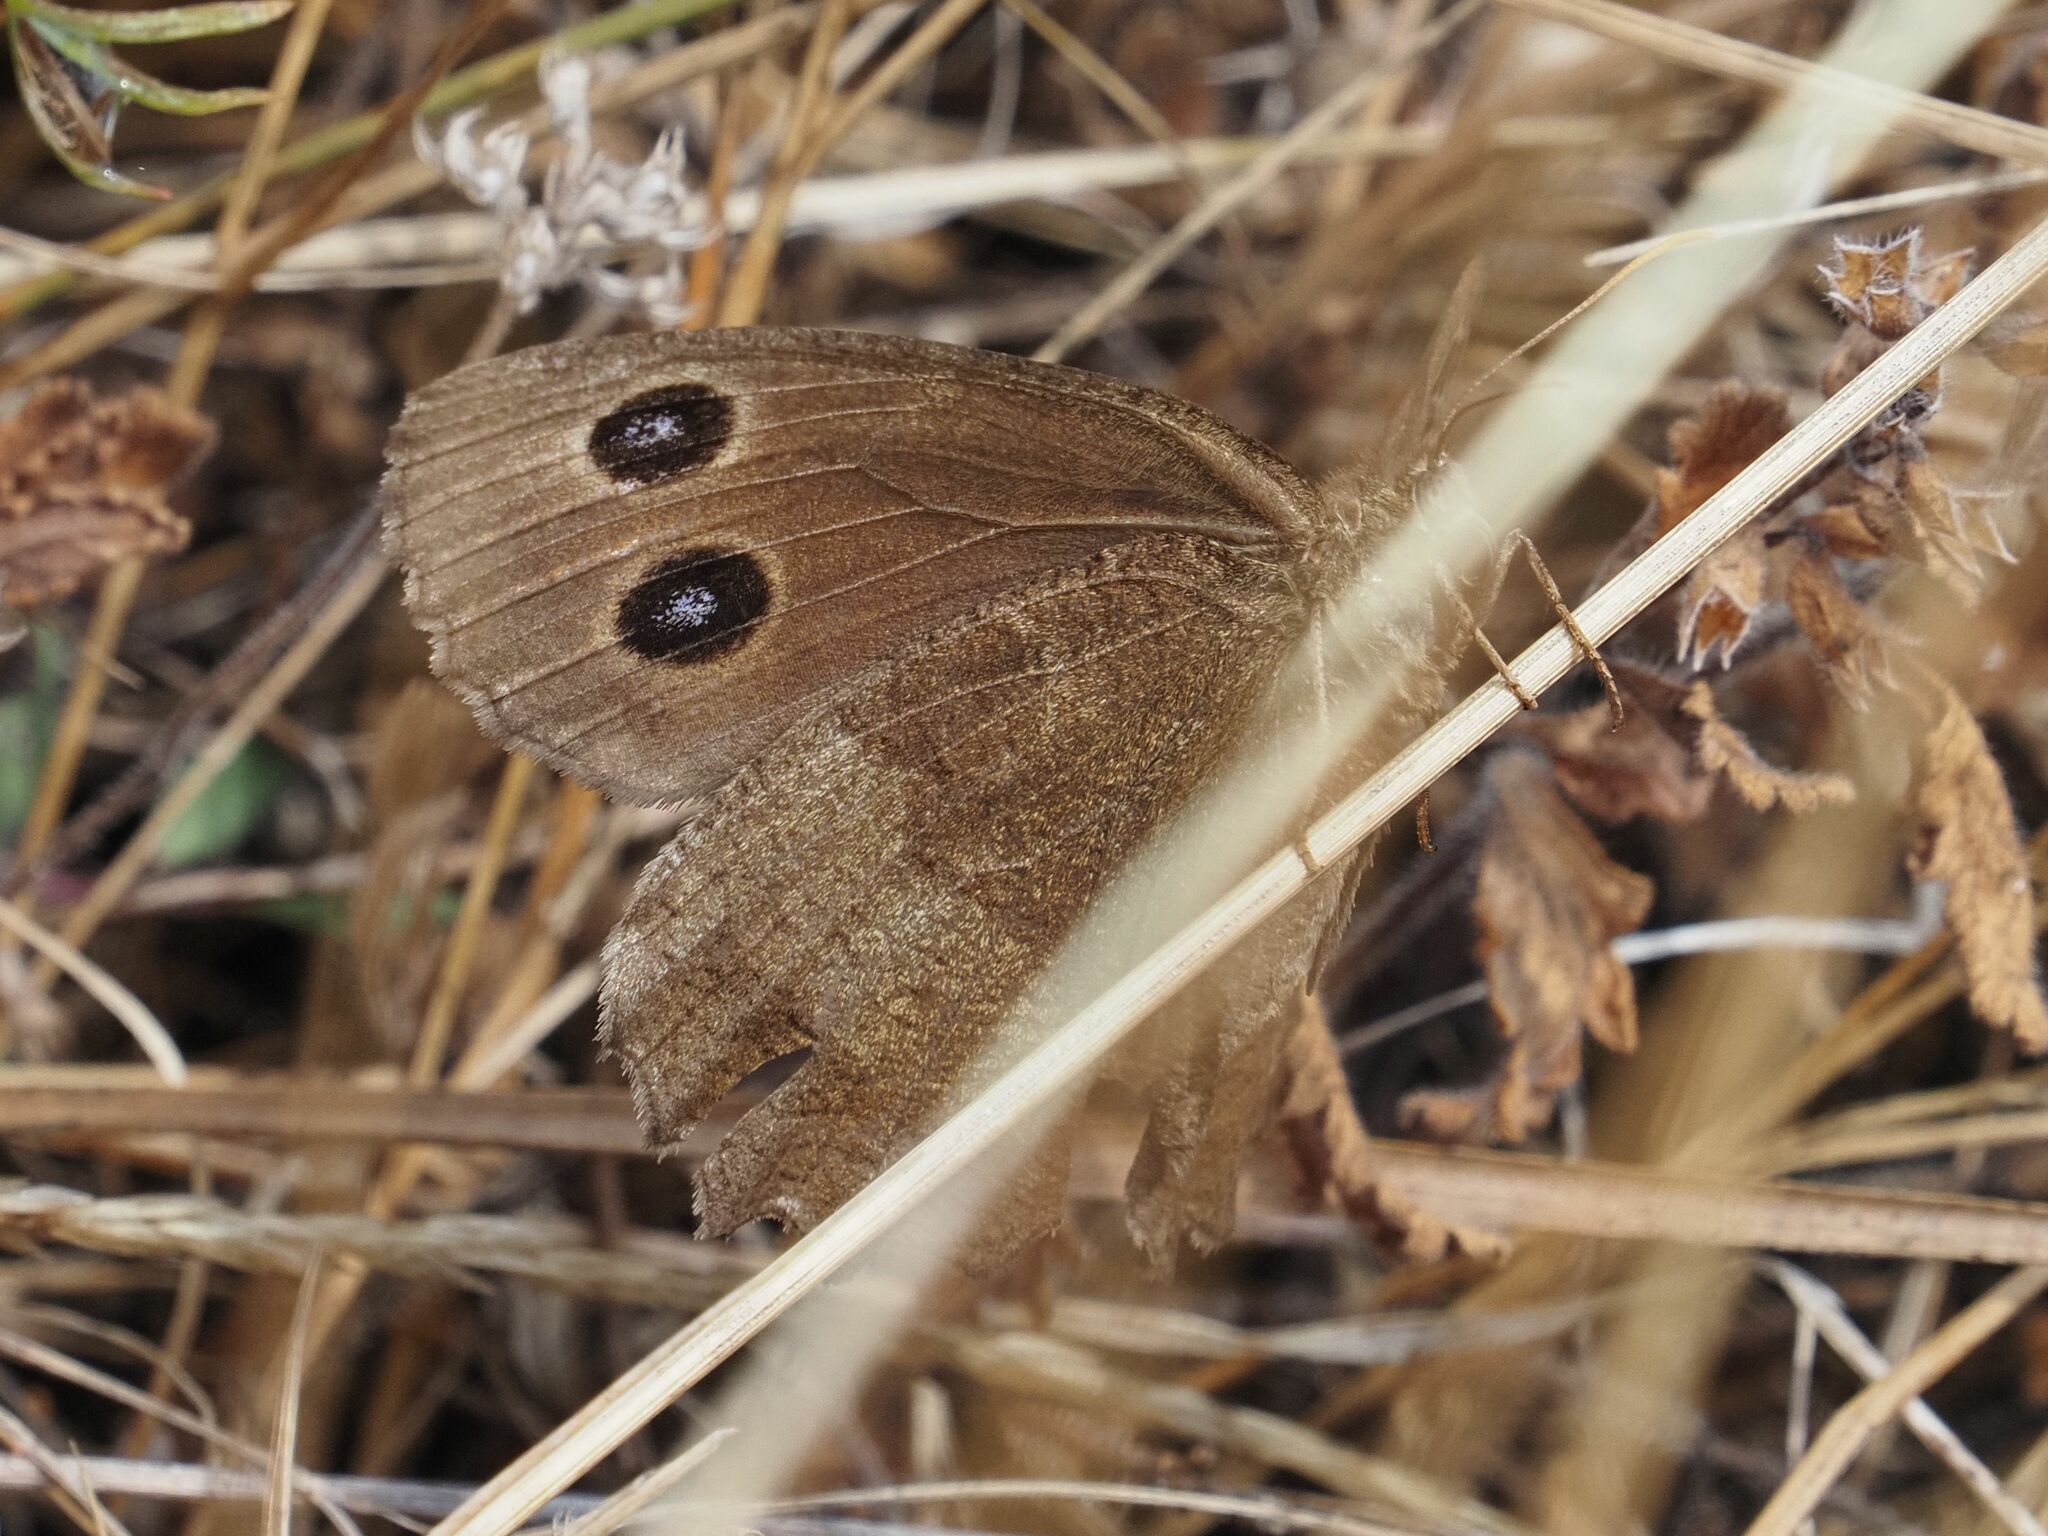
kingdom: Animalia
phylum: Arthropoda
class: Insecta
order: Lepidoptera
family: Nymphalidae
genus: Minois
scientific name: Minois dryas
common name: Dryad
